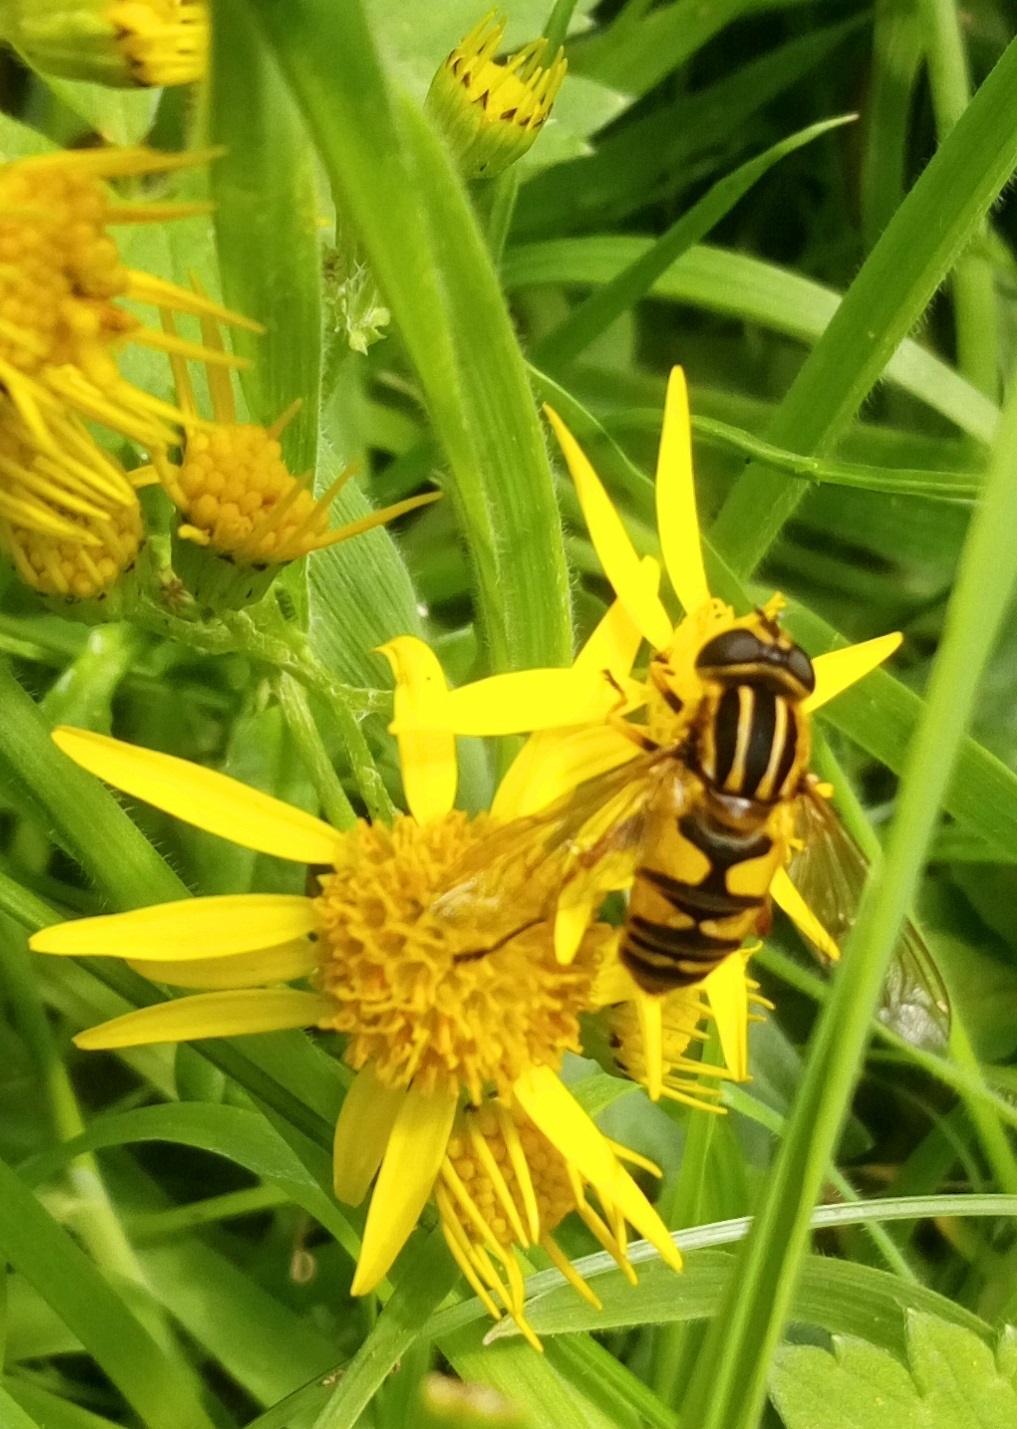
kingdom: Animalia
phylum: Arthropoda
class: Insecta
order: Diptera
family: Syrphidae
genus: Helophilus
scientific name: Helophilus pendulus
